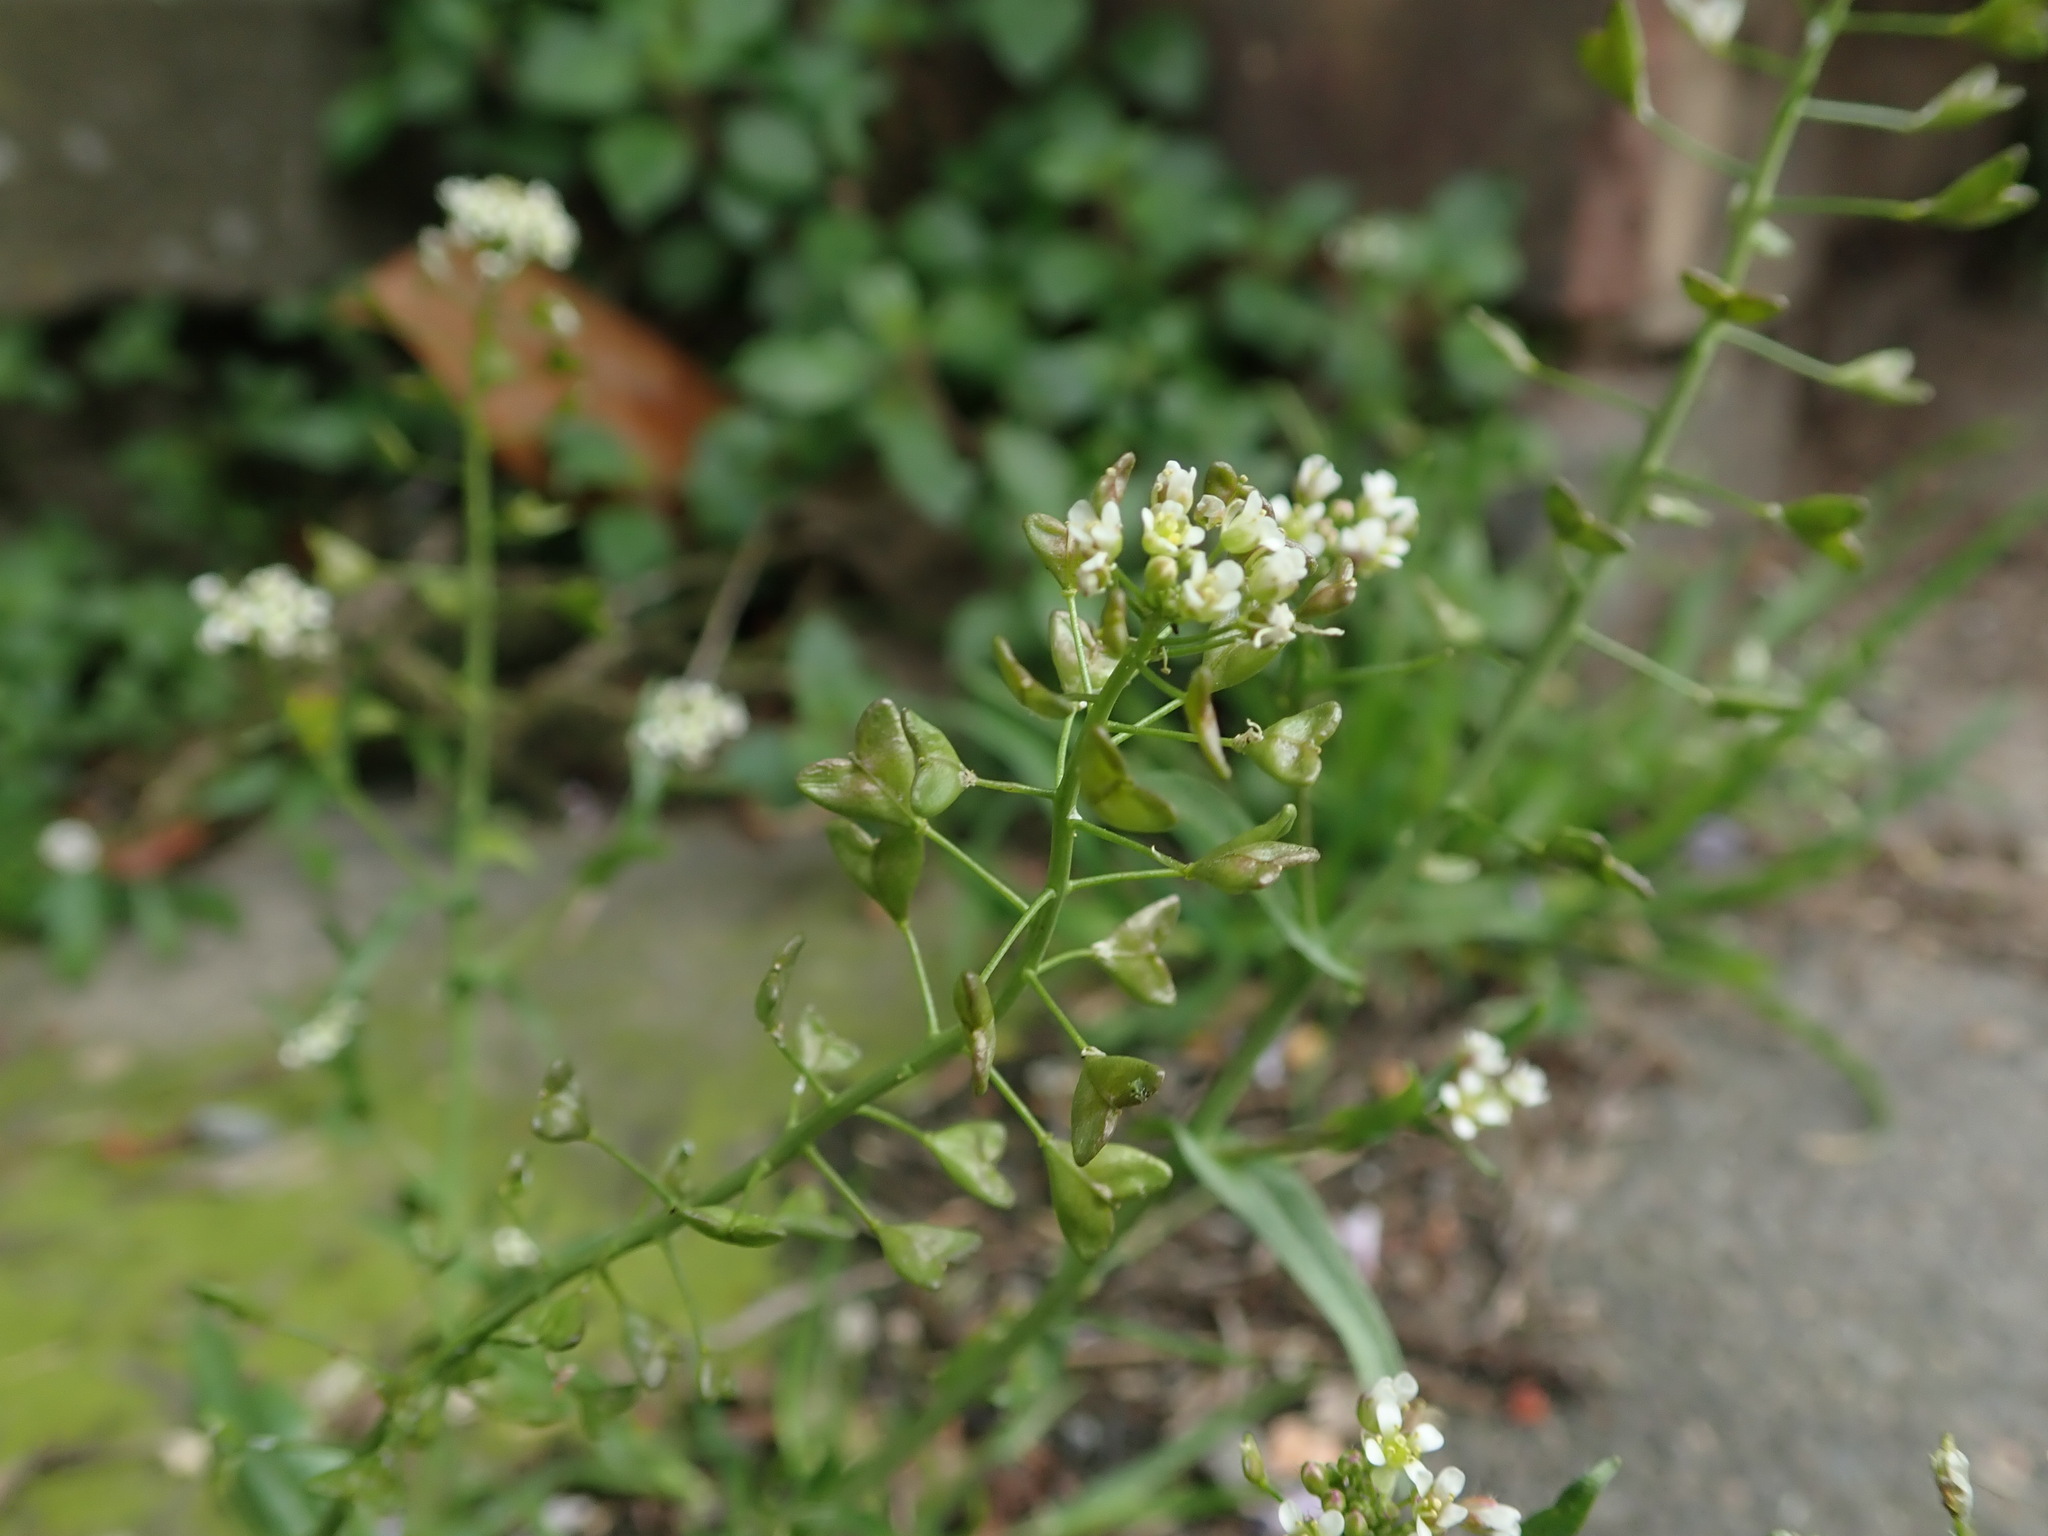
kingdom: Plantae
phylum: Tracheophyta
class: Magnoliopsida
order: Brassicales
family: Brassicaceae
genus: Capsella
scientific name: Capsella bursa-pastoris
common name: Shepherd's purse
